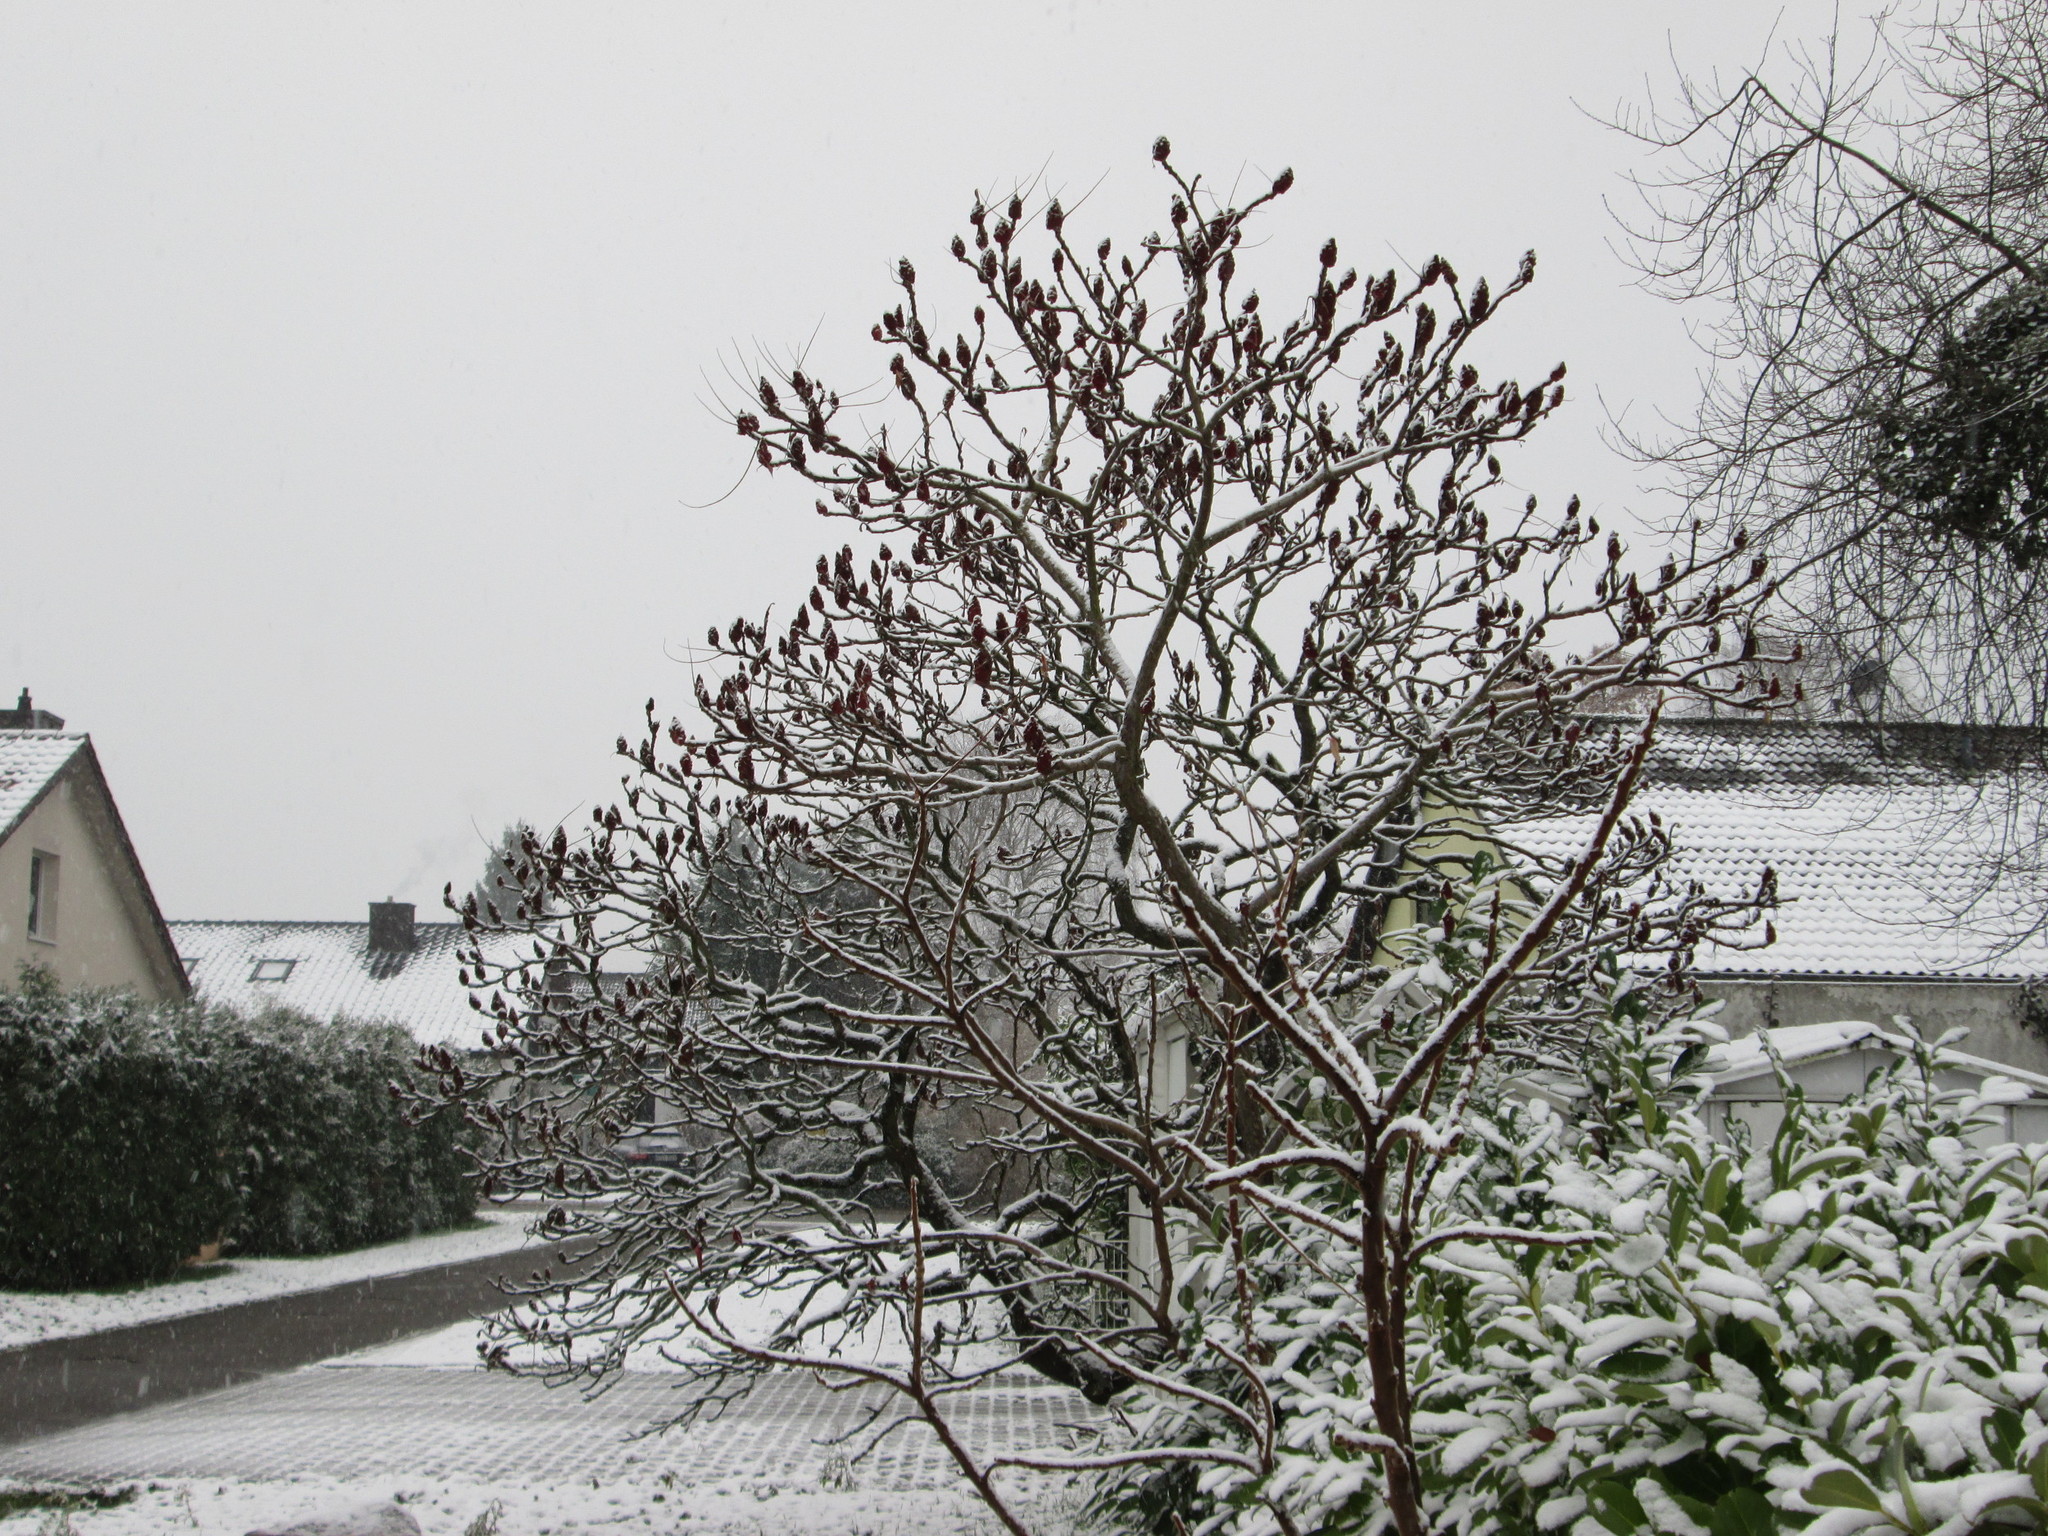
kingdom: Plantae
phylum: Tracheophyta
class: Magnoliopsida
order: Sapindales
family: Anacardiaceae
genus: Rhus
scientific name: Rhus typhina
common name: Staghorn sumac
